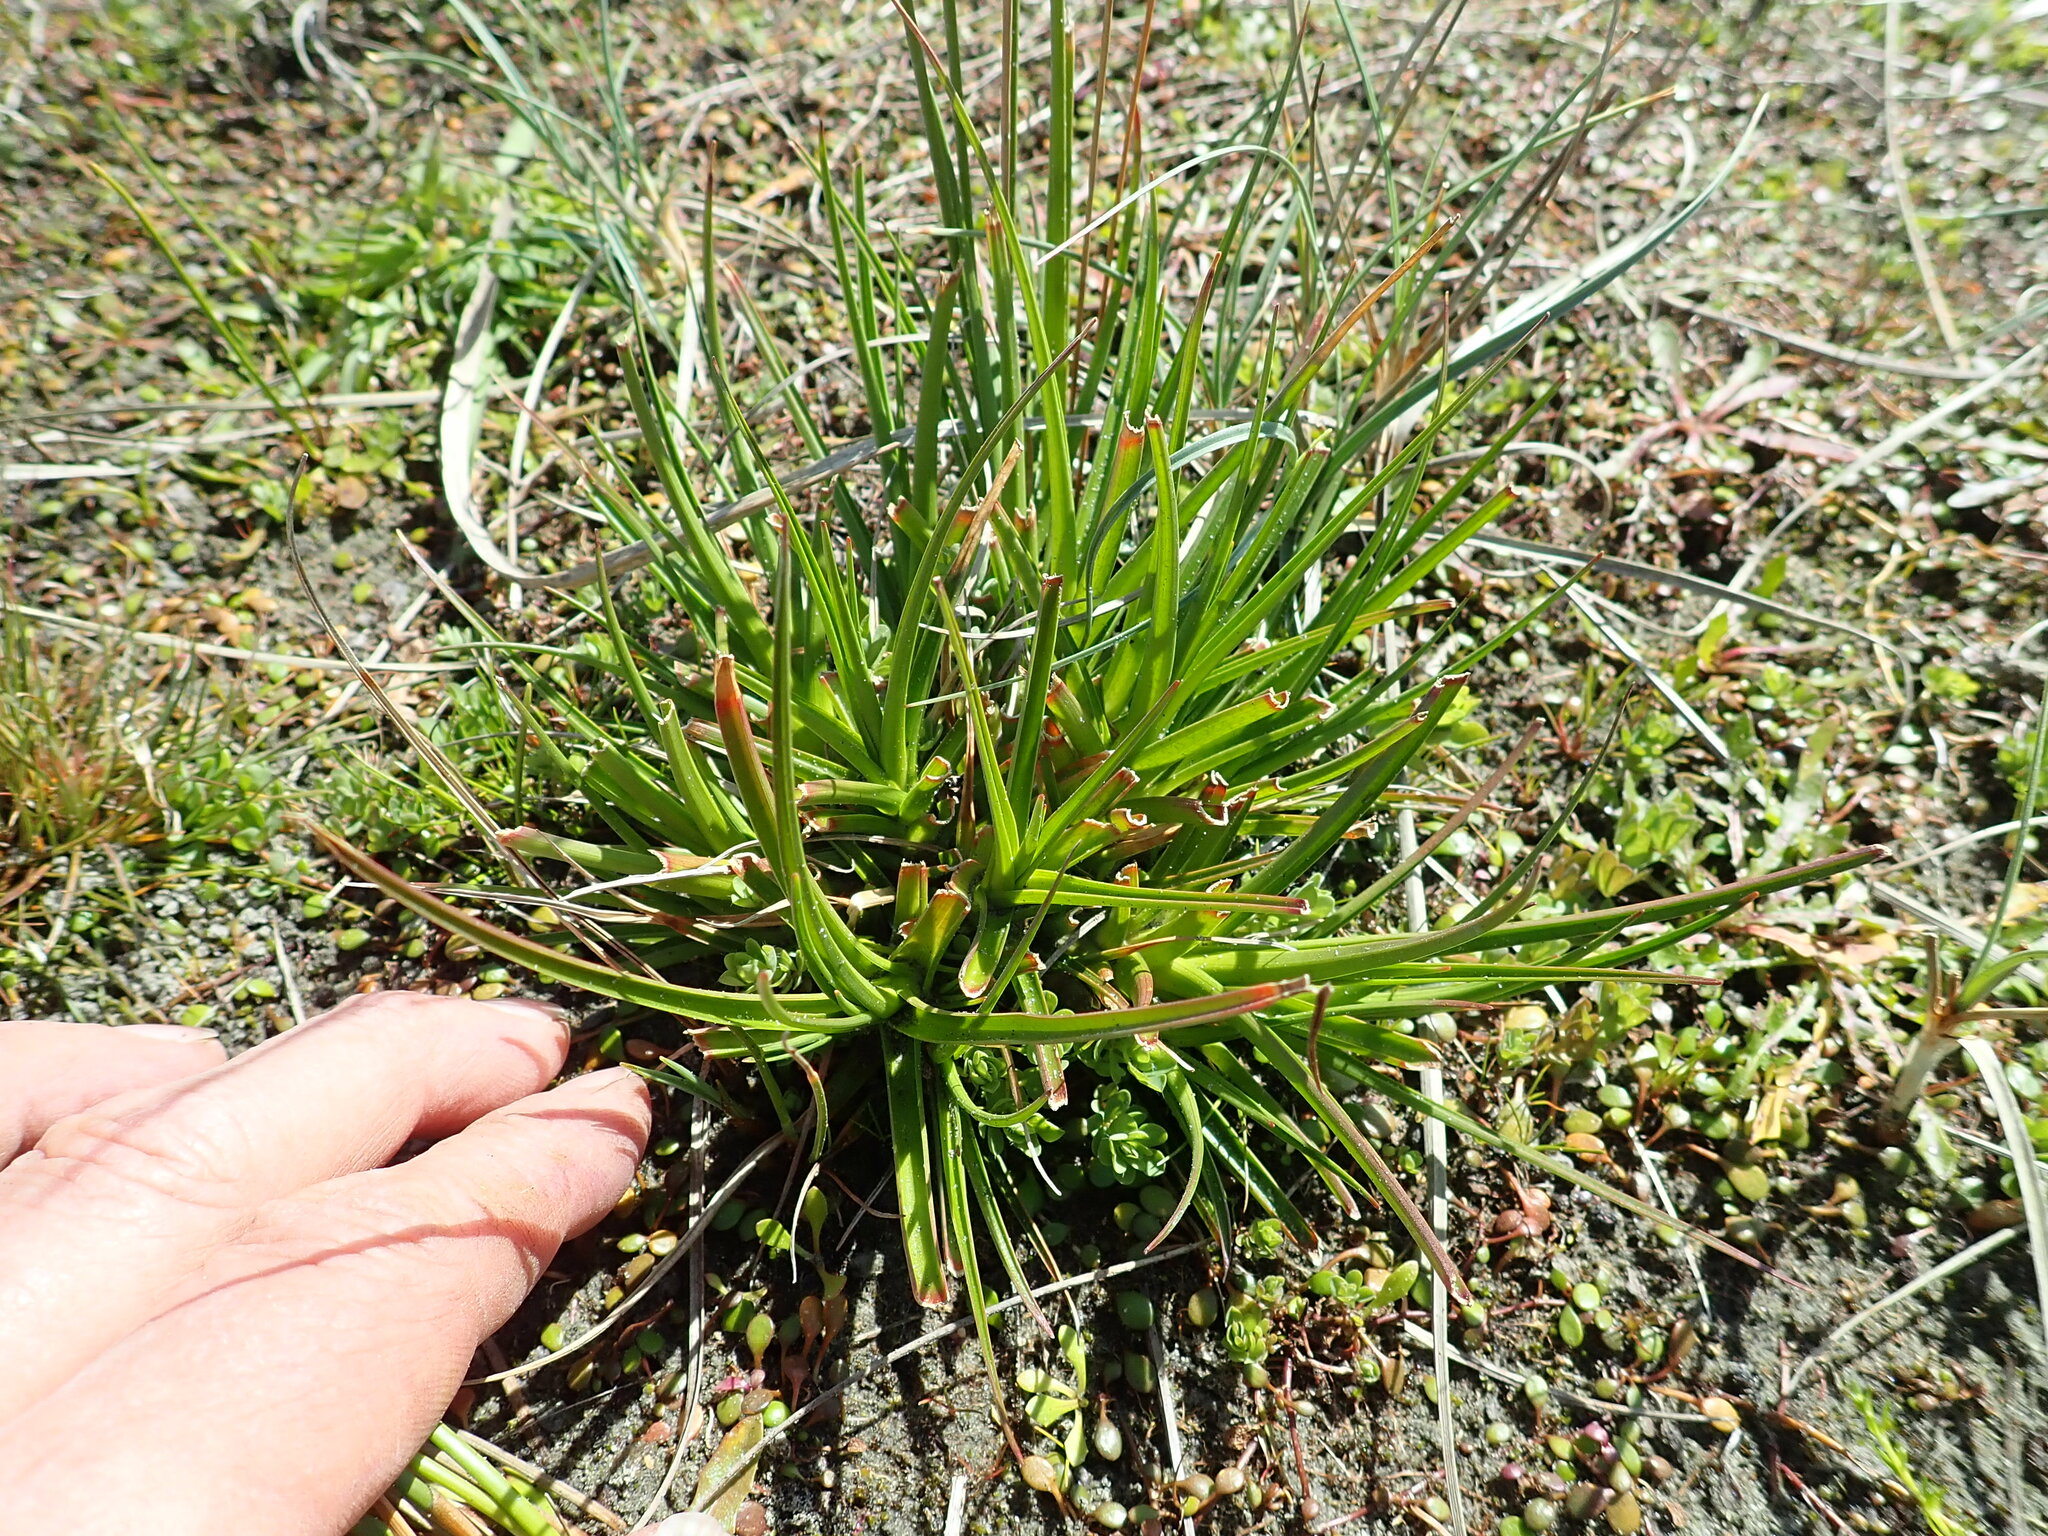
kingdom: Plantae
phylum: Tracheophyta
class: Liliopsida
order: Poales
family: Juncaceae
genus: Juncus
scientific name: Juncus caespiticius
